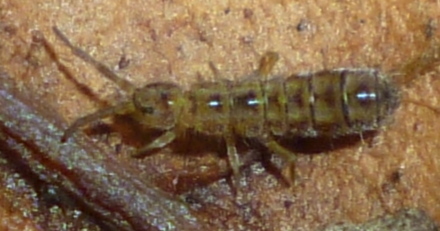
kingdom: Animalia
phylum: Arthropoda
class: Collembola
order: Entomobryomorpha
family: Isotomidae
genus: Isotoma
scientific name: Isotoma delta
